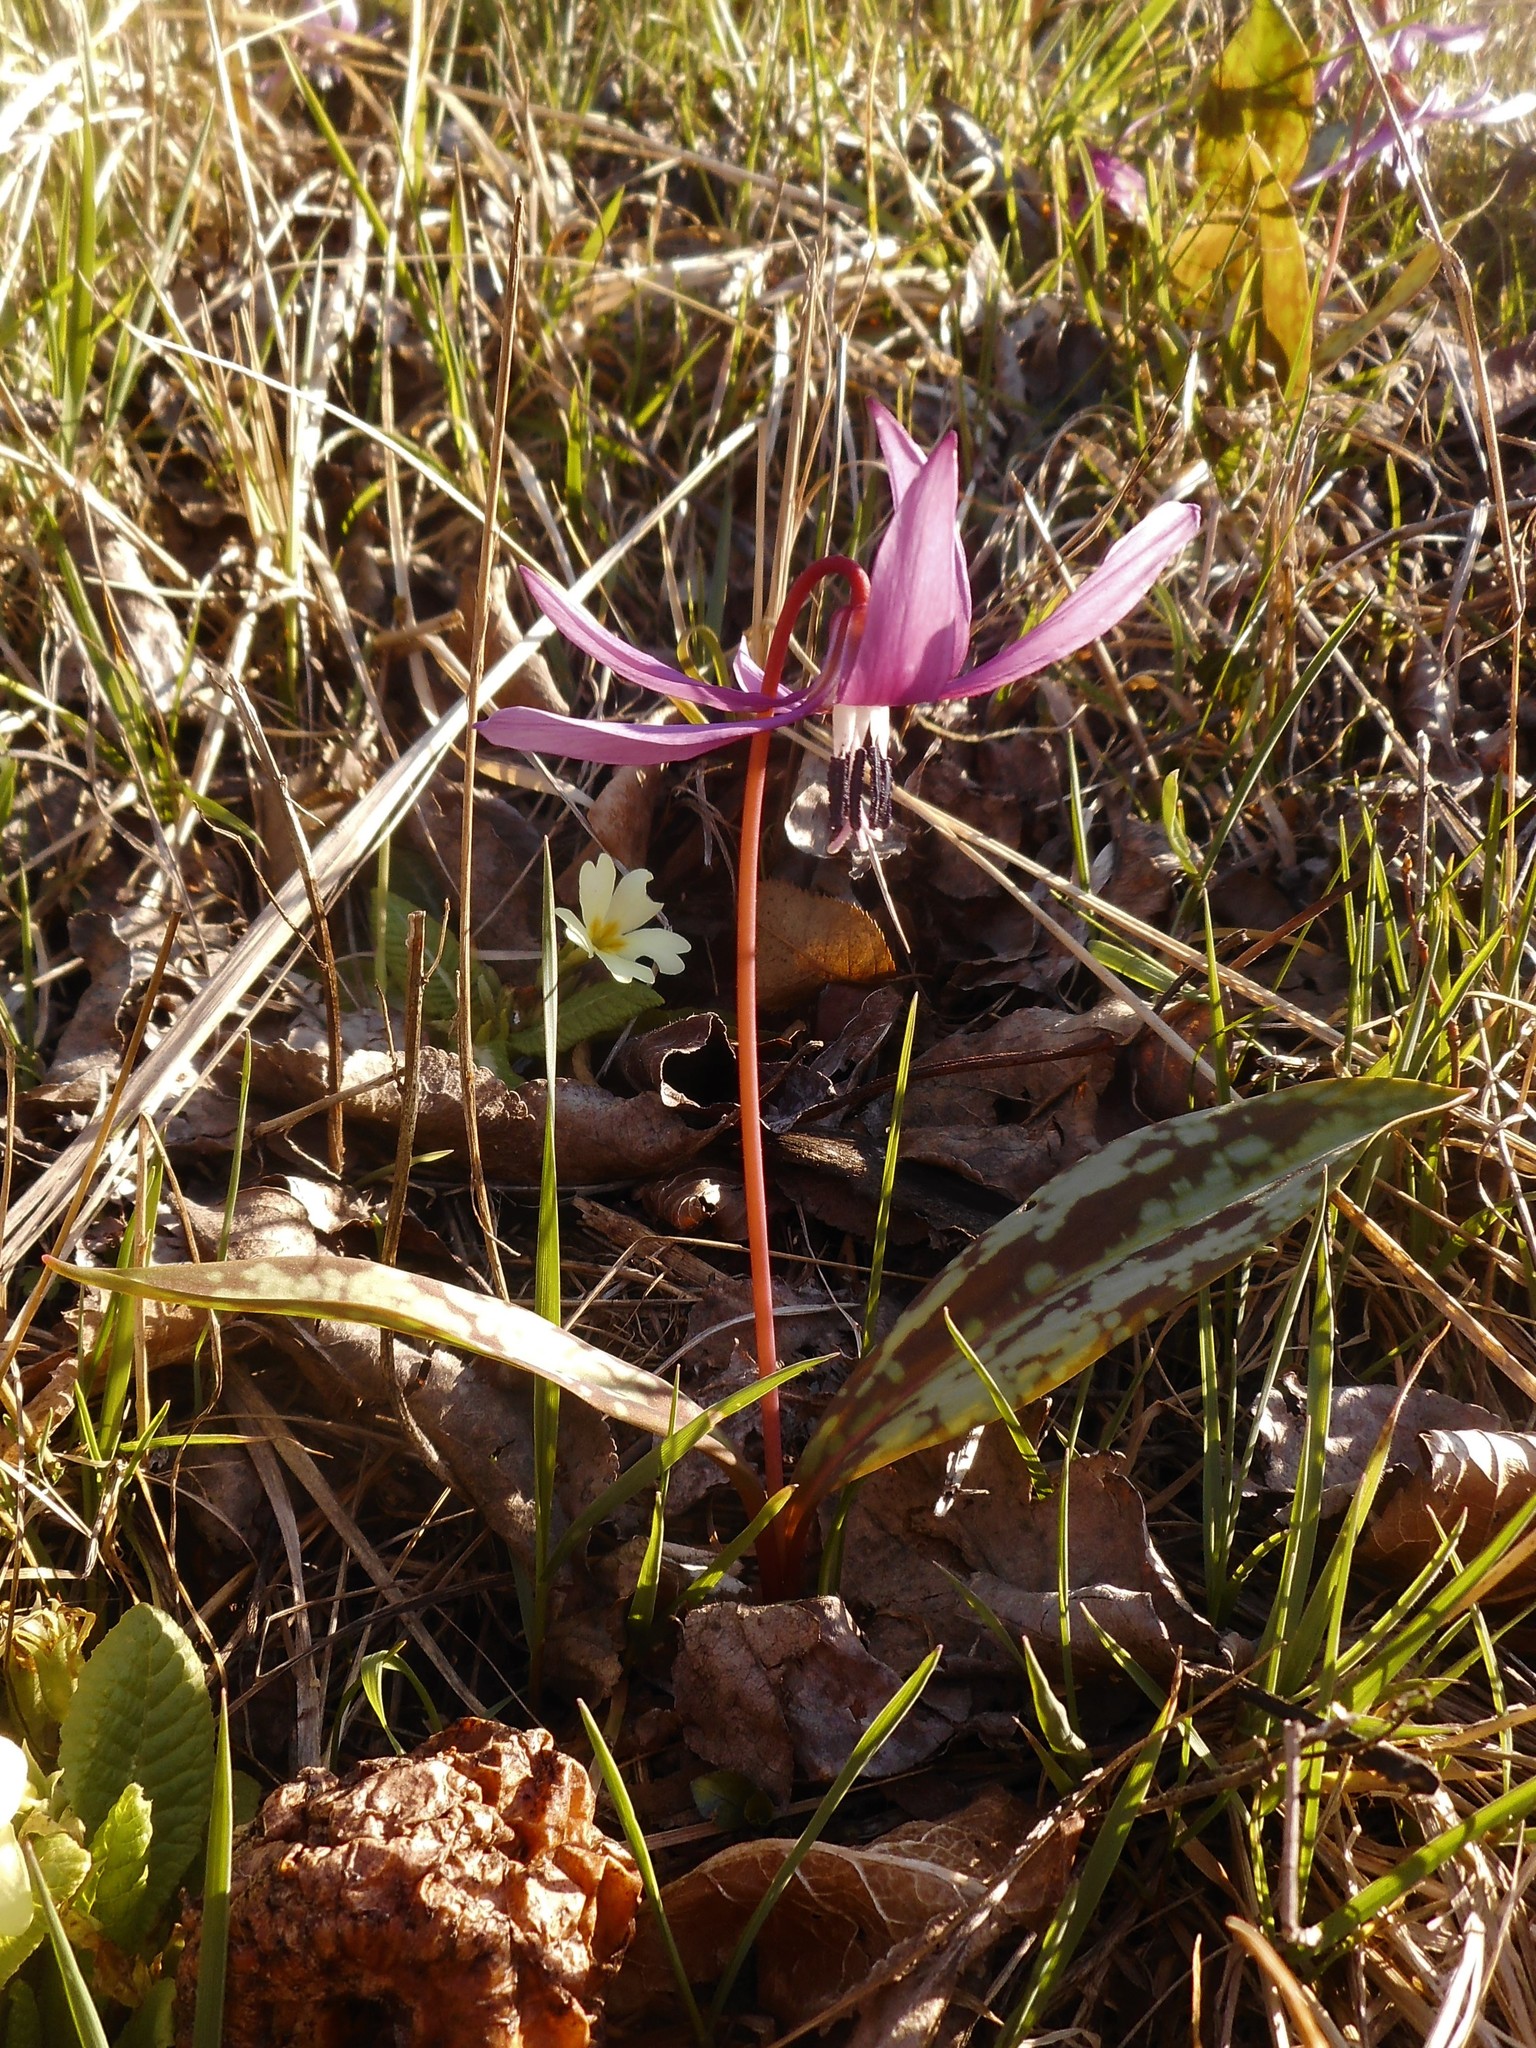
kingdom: Plantae
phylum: Tracheophyta
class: Liliopsida
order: Liliales
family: Liliaceae
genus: Erythronium
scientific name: Erythronium dens-canis
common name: Dog's-tooth-violet
